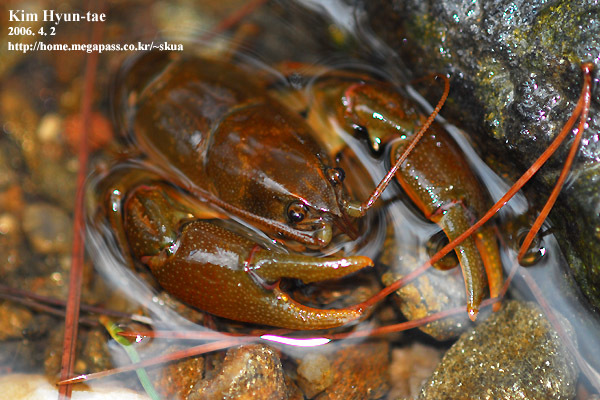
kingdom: Animalia
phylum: Arthropoda
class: Malacostraca
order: Decapoda
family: Cambaroididae
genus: Cambaroides
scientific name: Cambaroides similis
